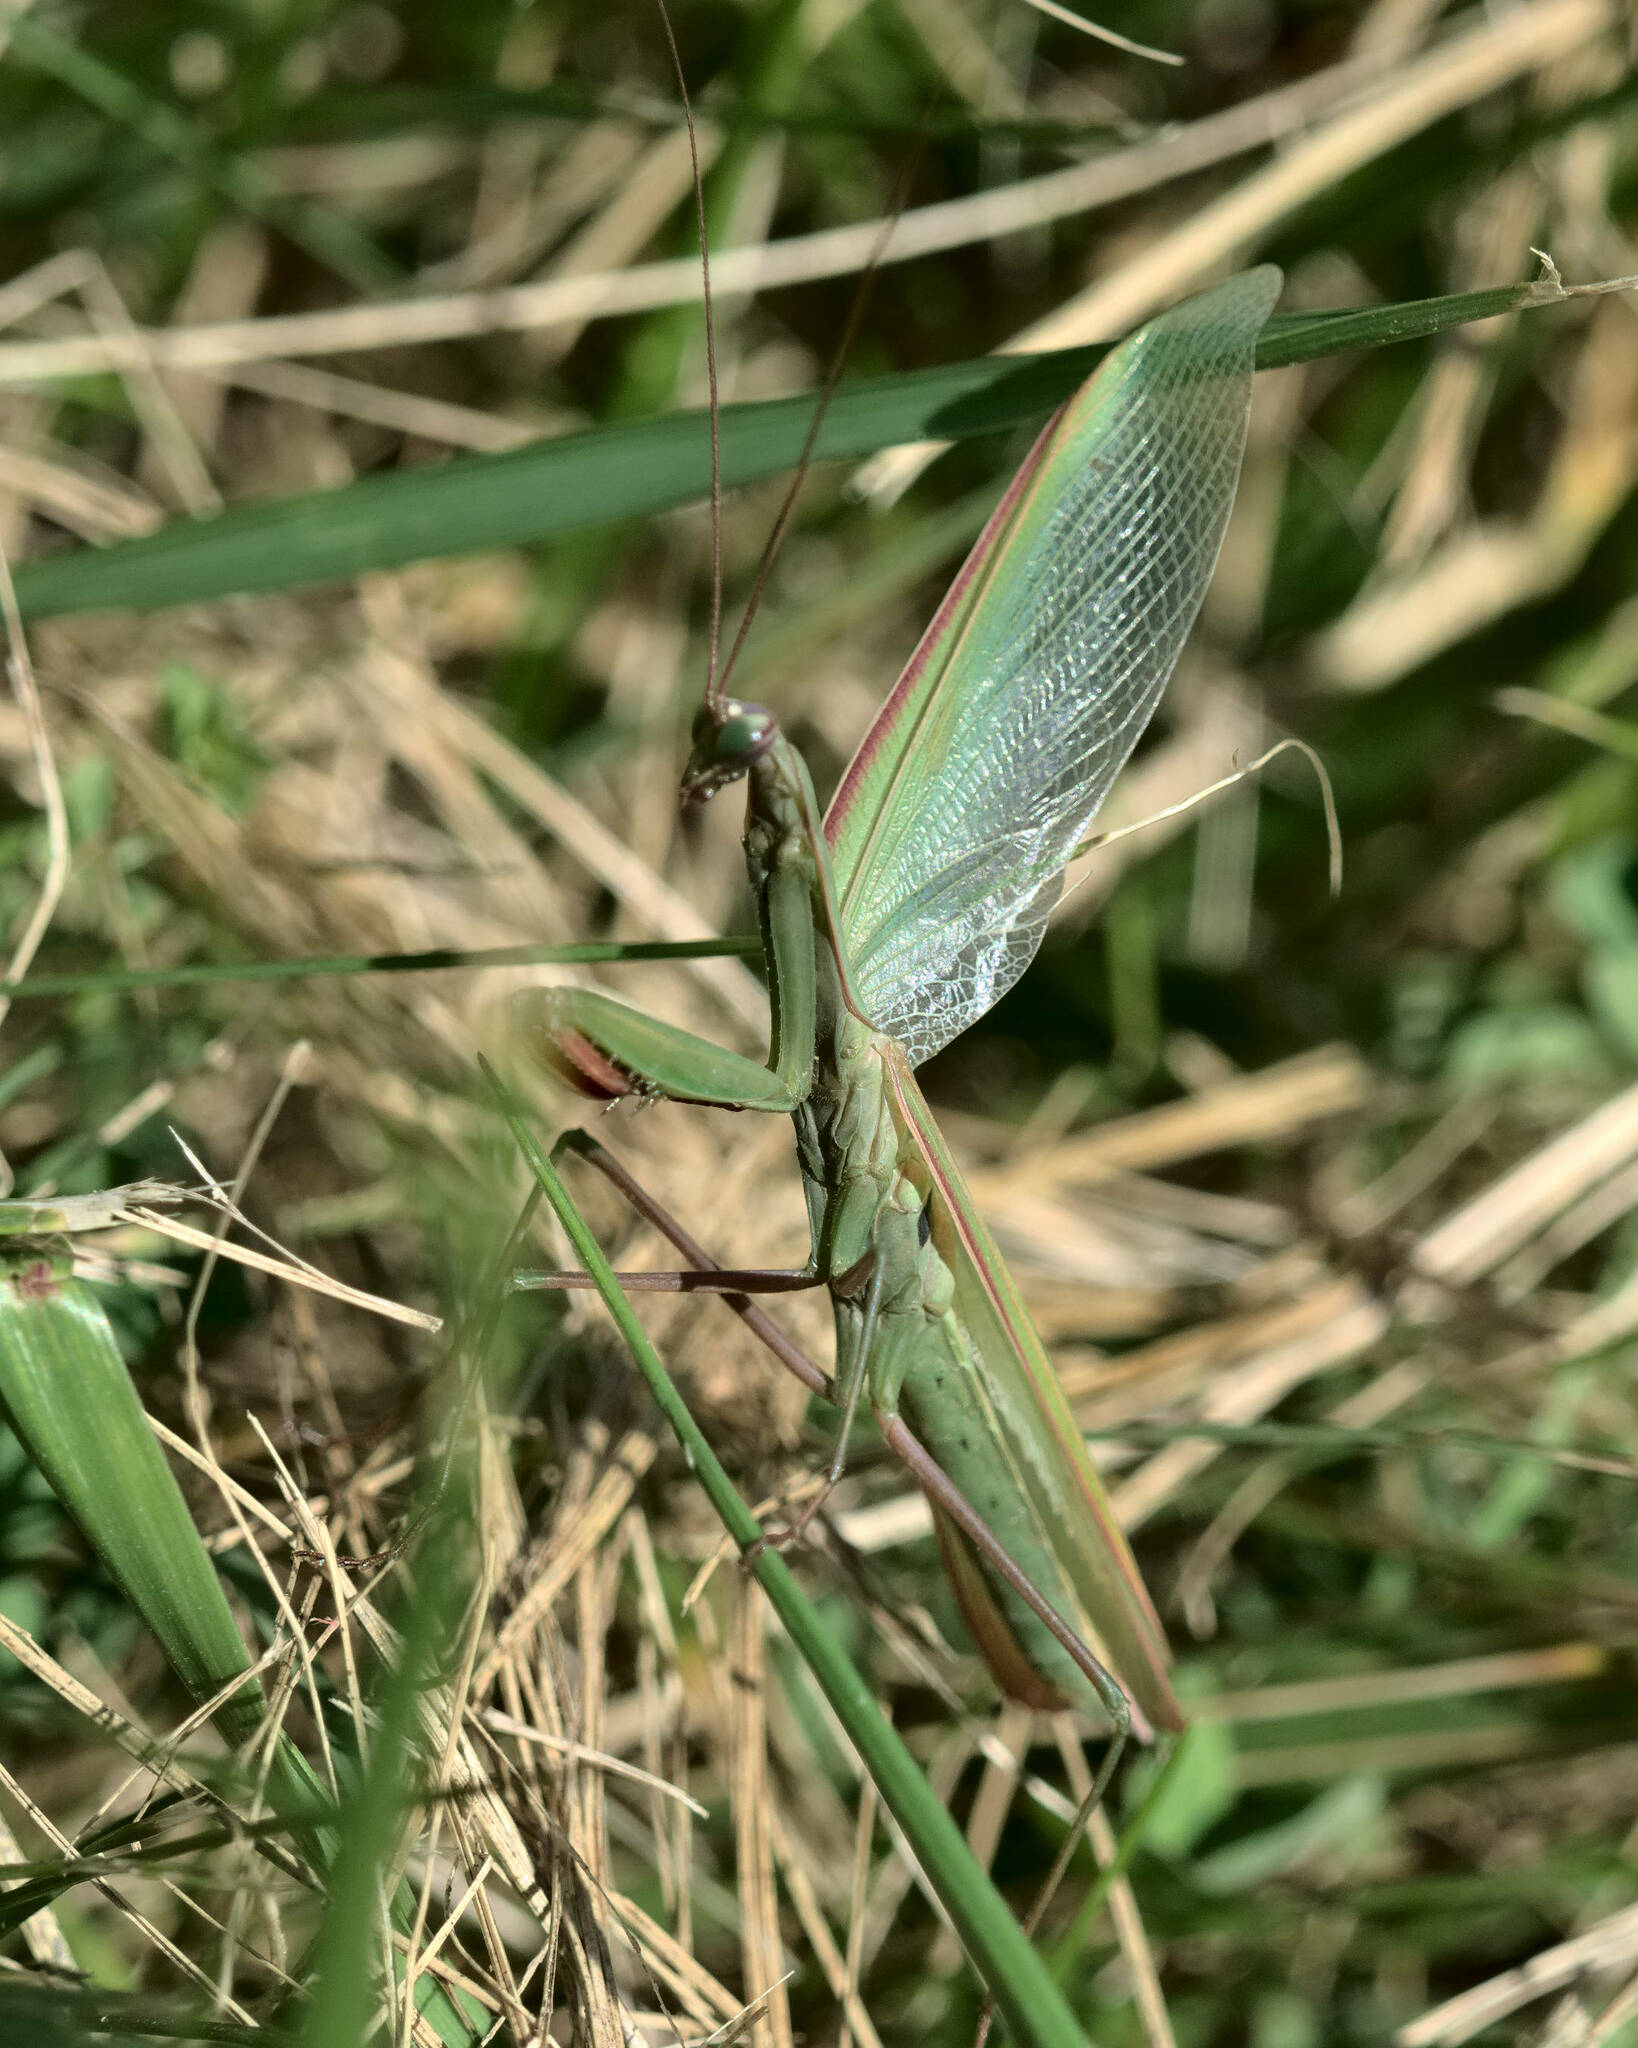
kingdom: Animalia
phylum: Arthropoda
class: Insecta
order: Mantodea
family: Mantidae
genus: Mantis
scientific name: Mantis religiosa
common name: Praying mantis
